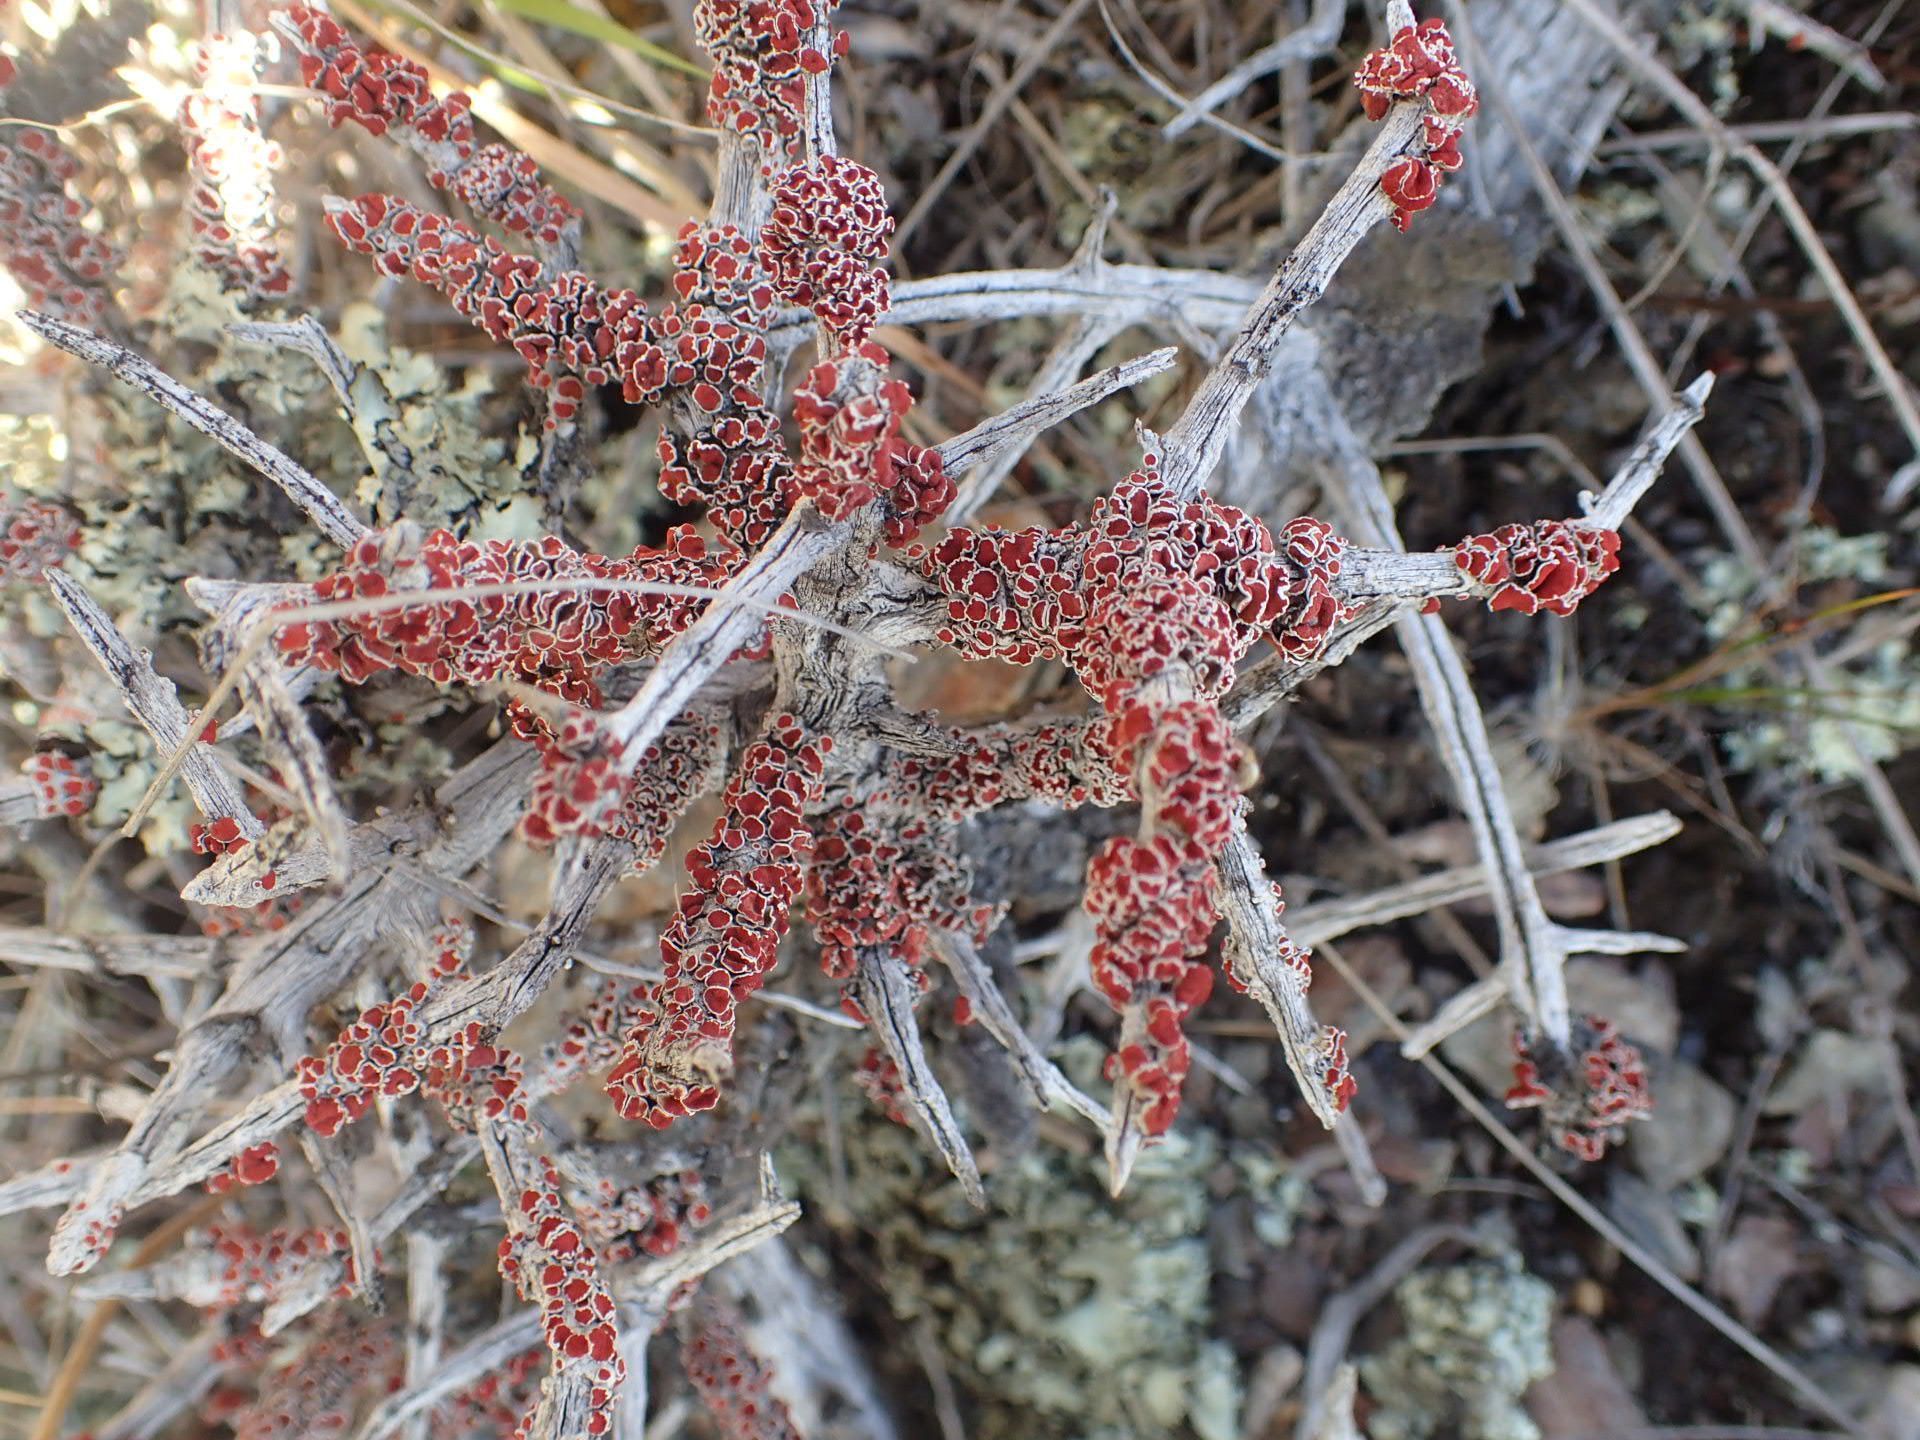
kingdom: Fungi
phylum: Ascomycota
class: Lecanoromycetes
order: Lecanorales
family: Haematommataceae
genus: Haematomma
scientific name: Haematomma
